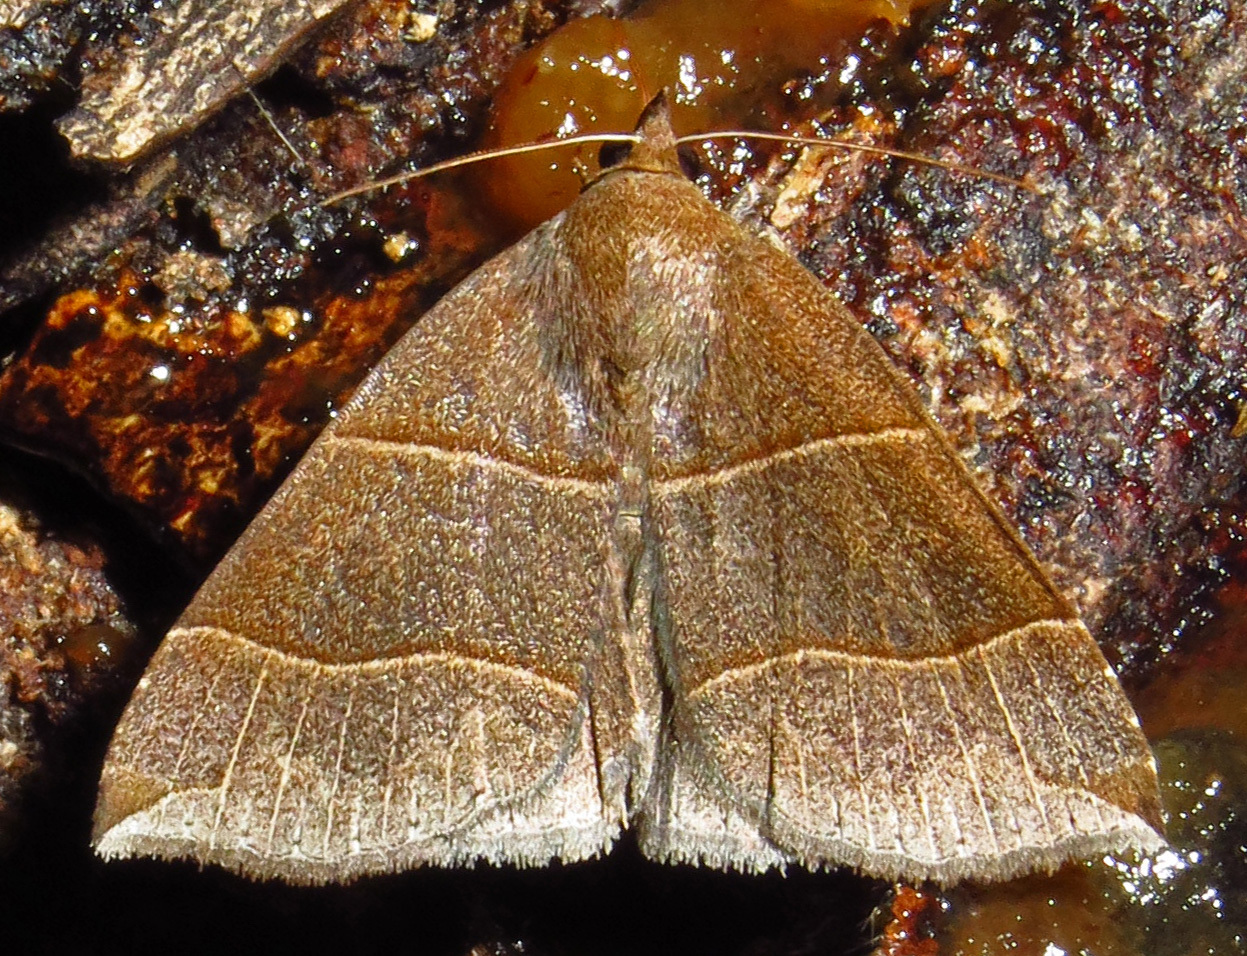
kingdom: Animalia
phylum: Arthropoda
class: Insecta
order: Lepidoptera
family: Erebidae
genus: Parallelia
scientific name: Parallelia bistriaris
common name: Maple looper moth
